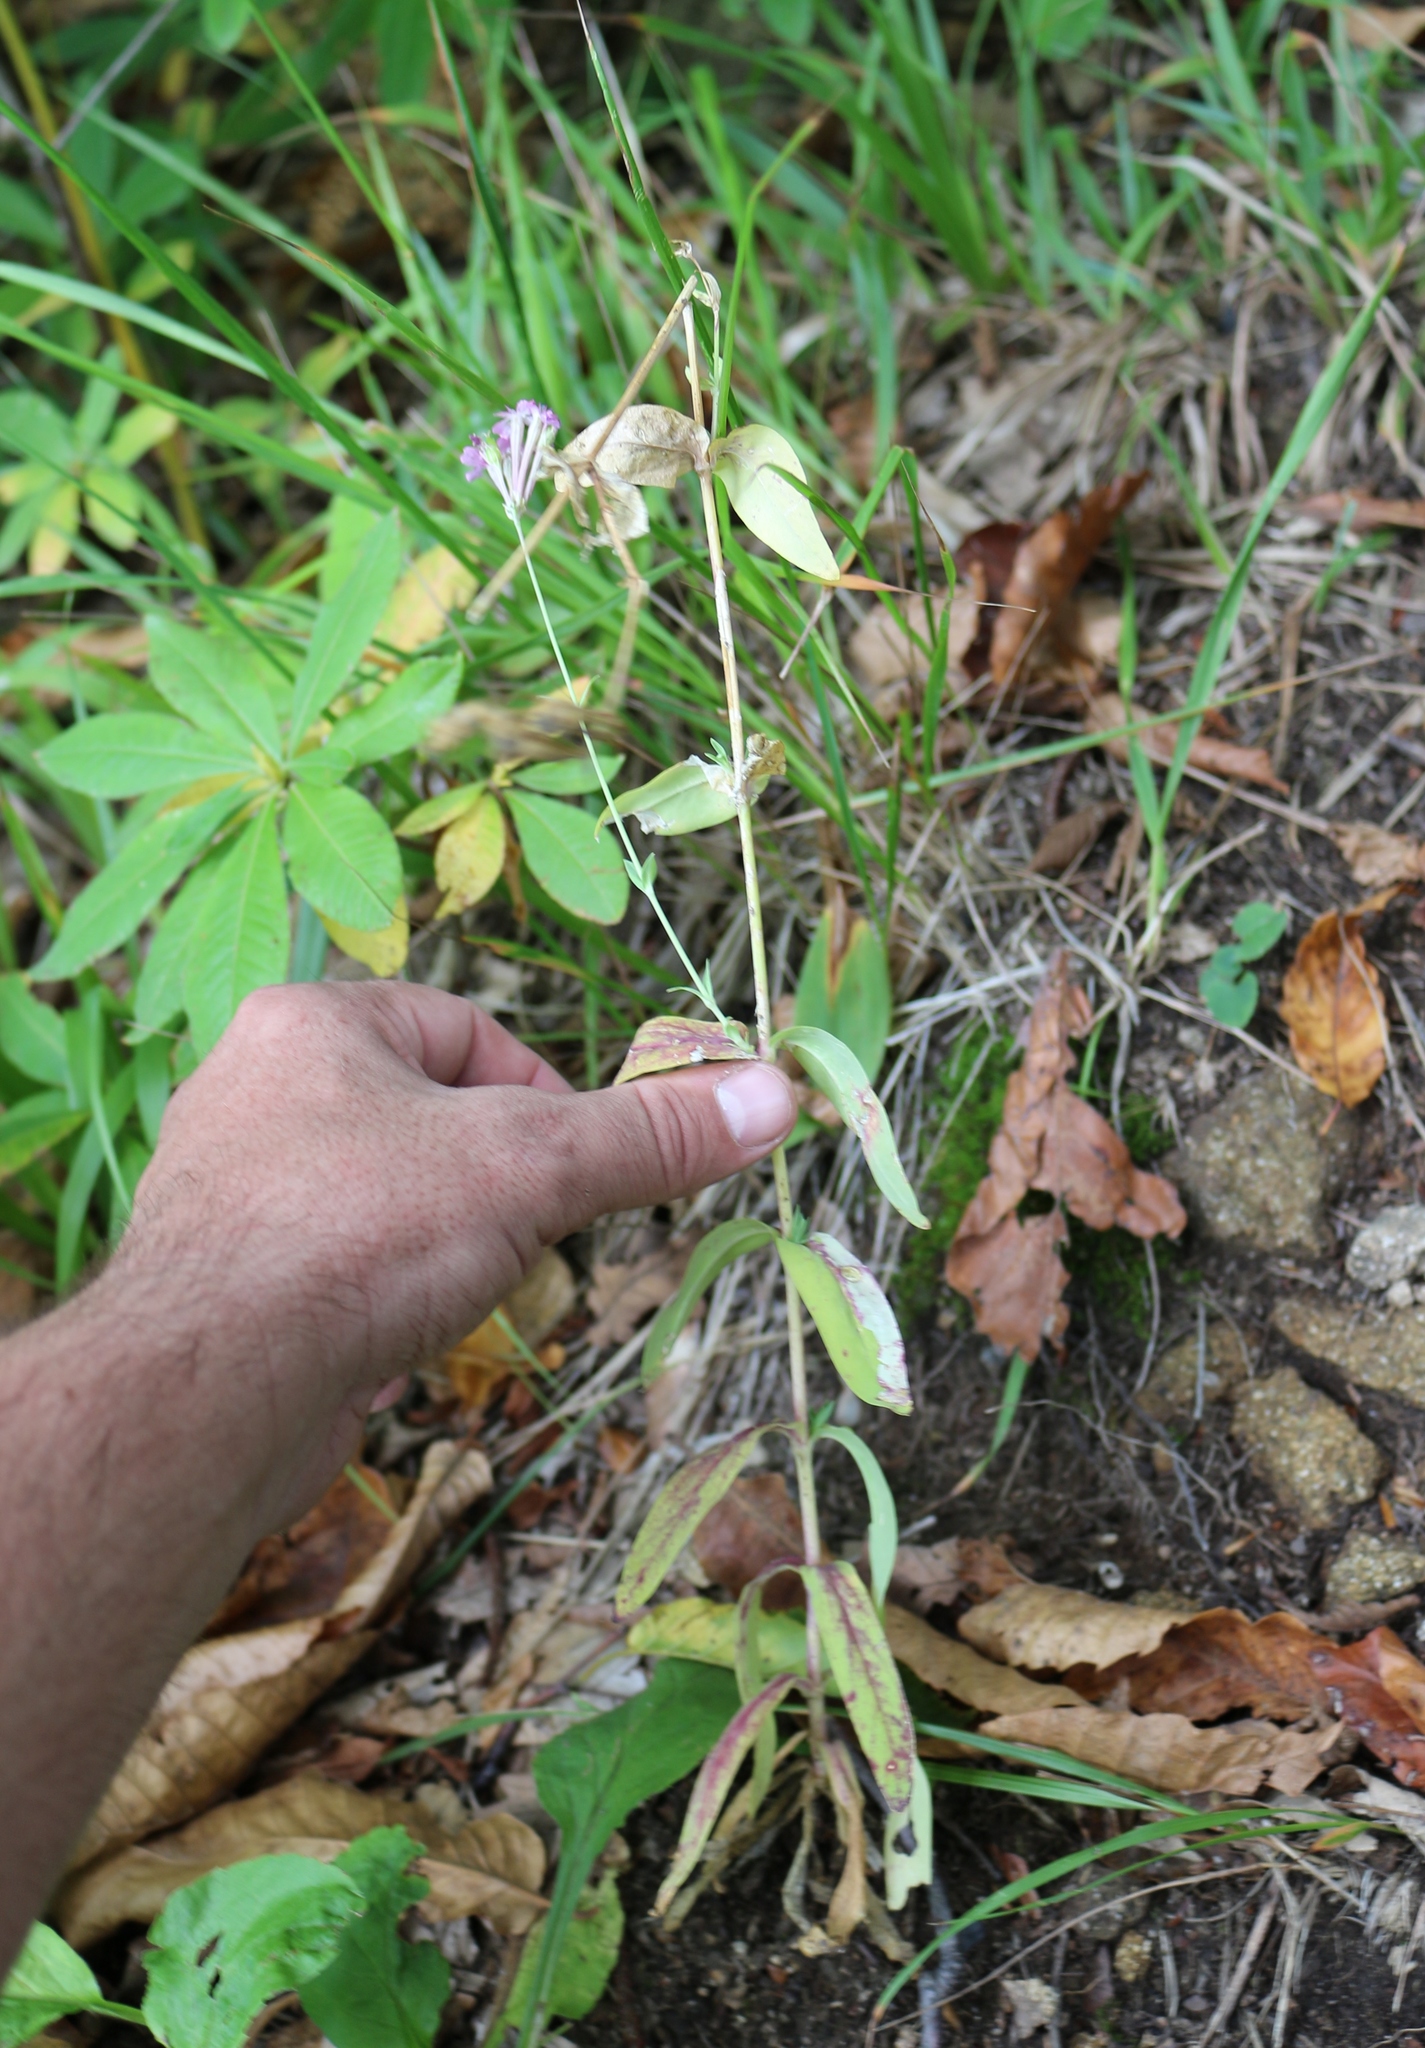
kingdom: Plantae
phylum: Tracheophyta
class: Magnoliopsida
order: Caryophyllales
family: Caryophyllaceae
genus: Atocion
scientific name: Atocion compactum
